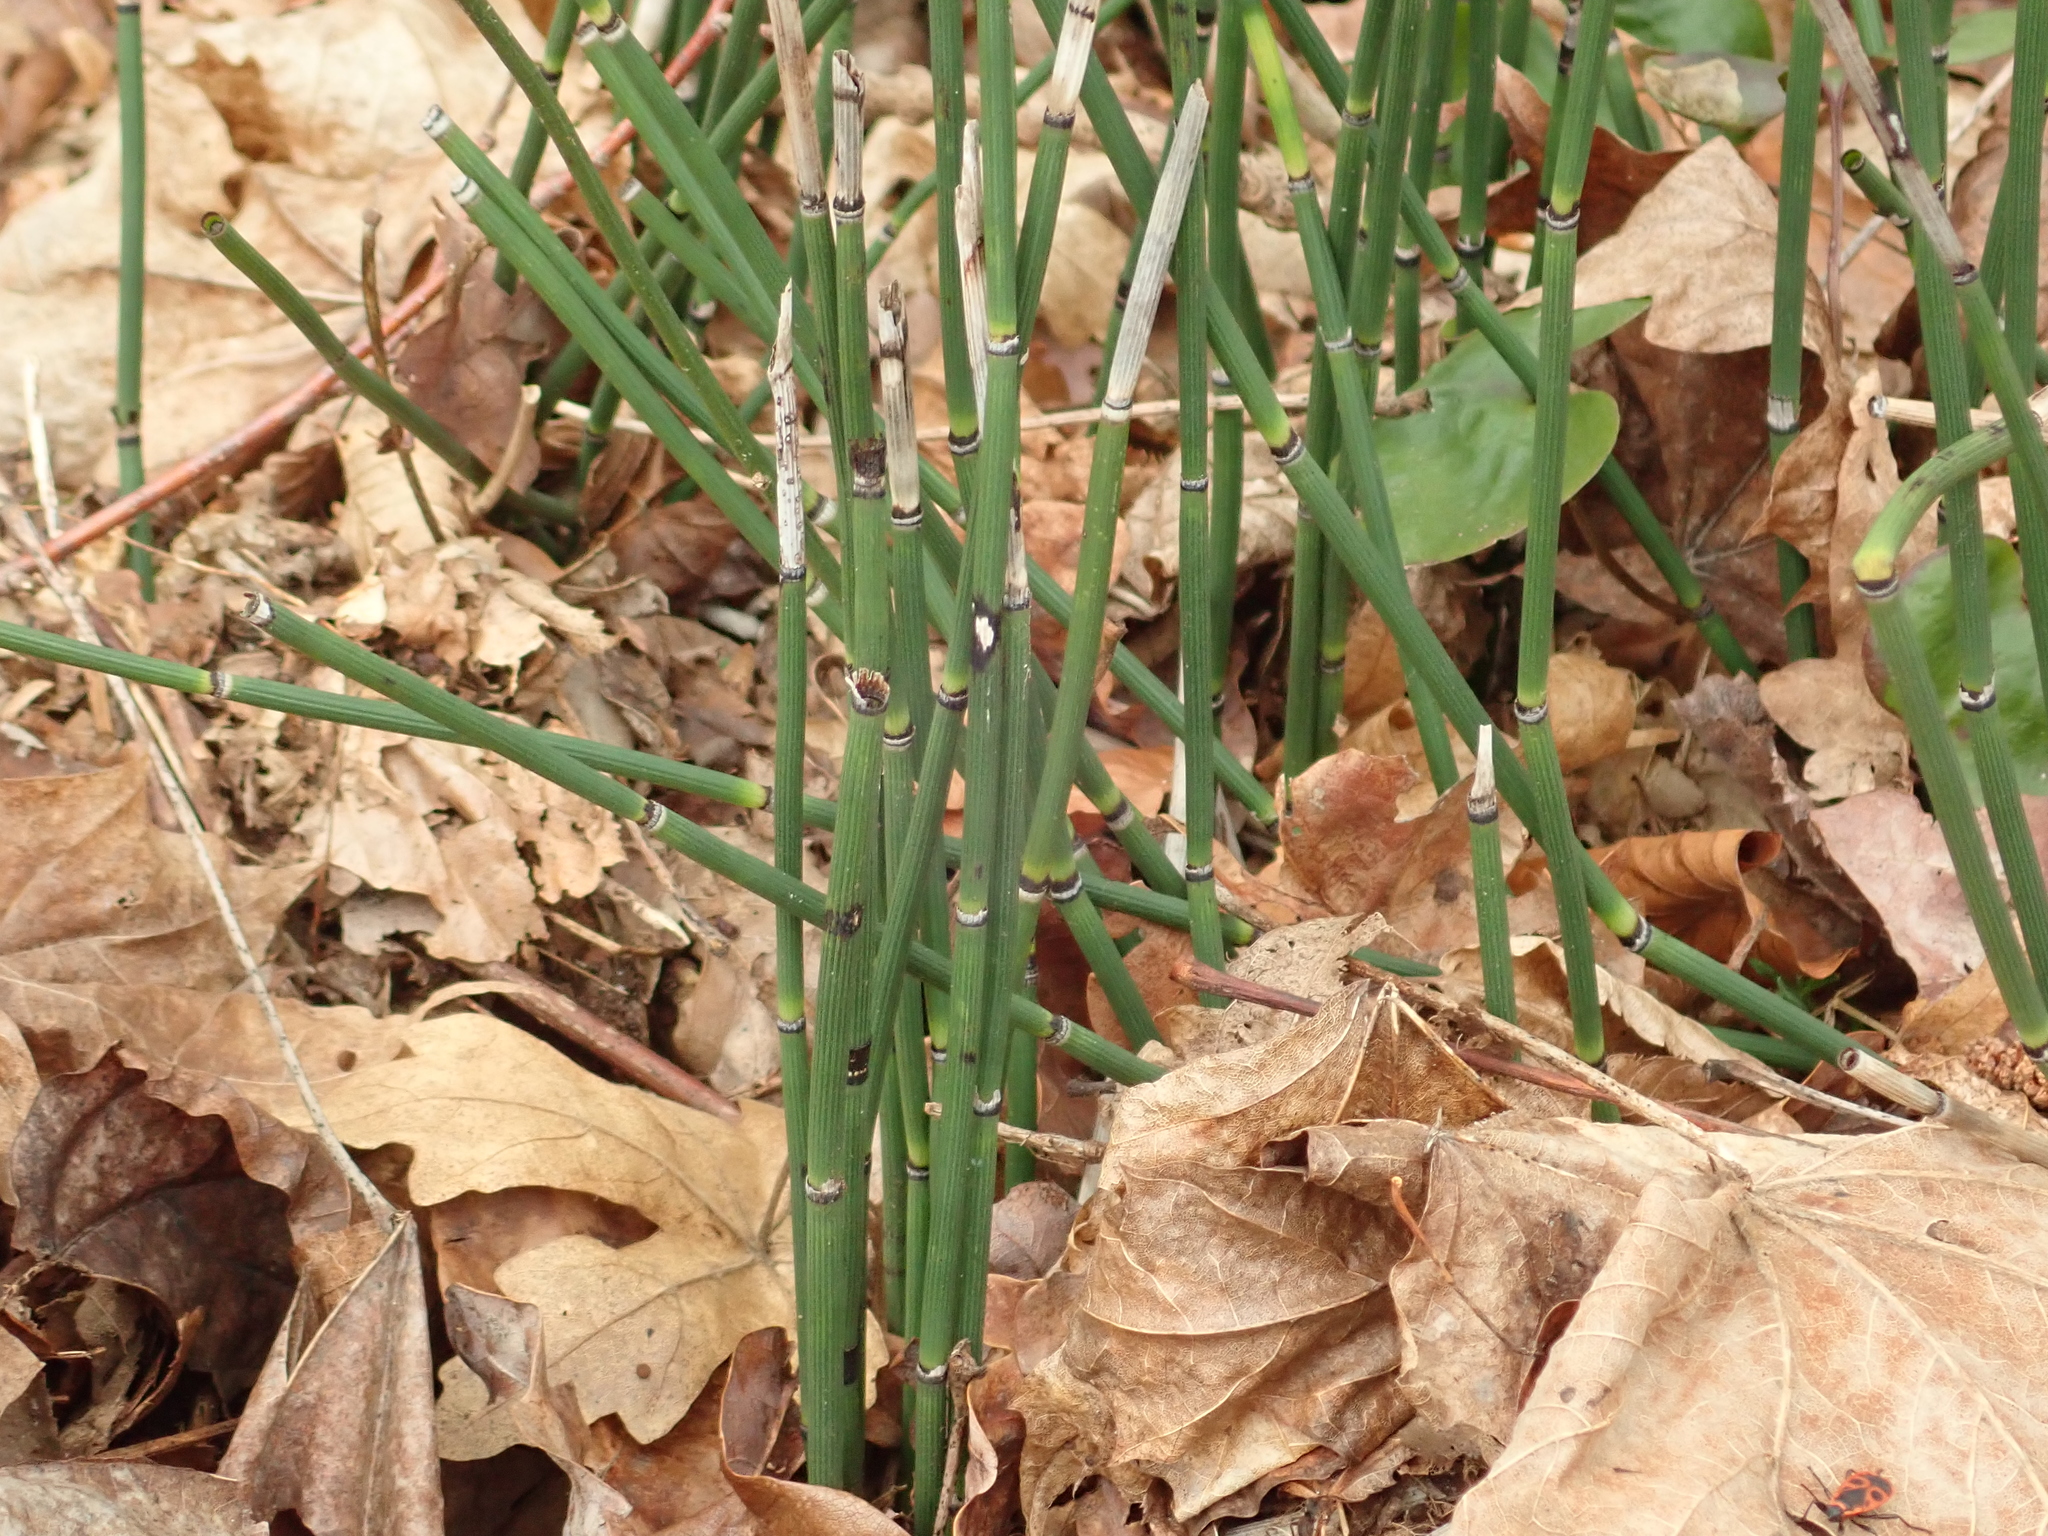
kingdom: Plantae
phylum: Tracheophyta
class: Polypodiopsida
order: Equisetales
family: Equisetaceae
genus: Equisetum
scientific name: Equisetum hyemale
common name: Rough horsetail
